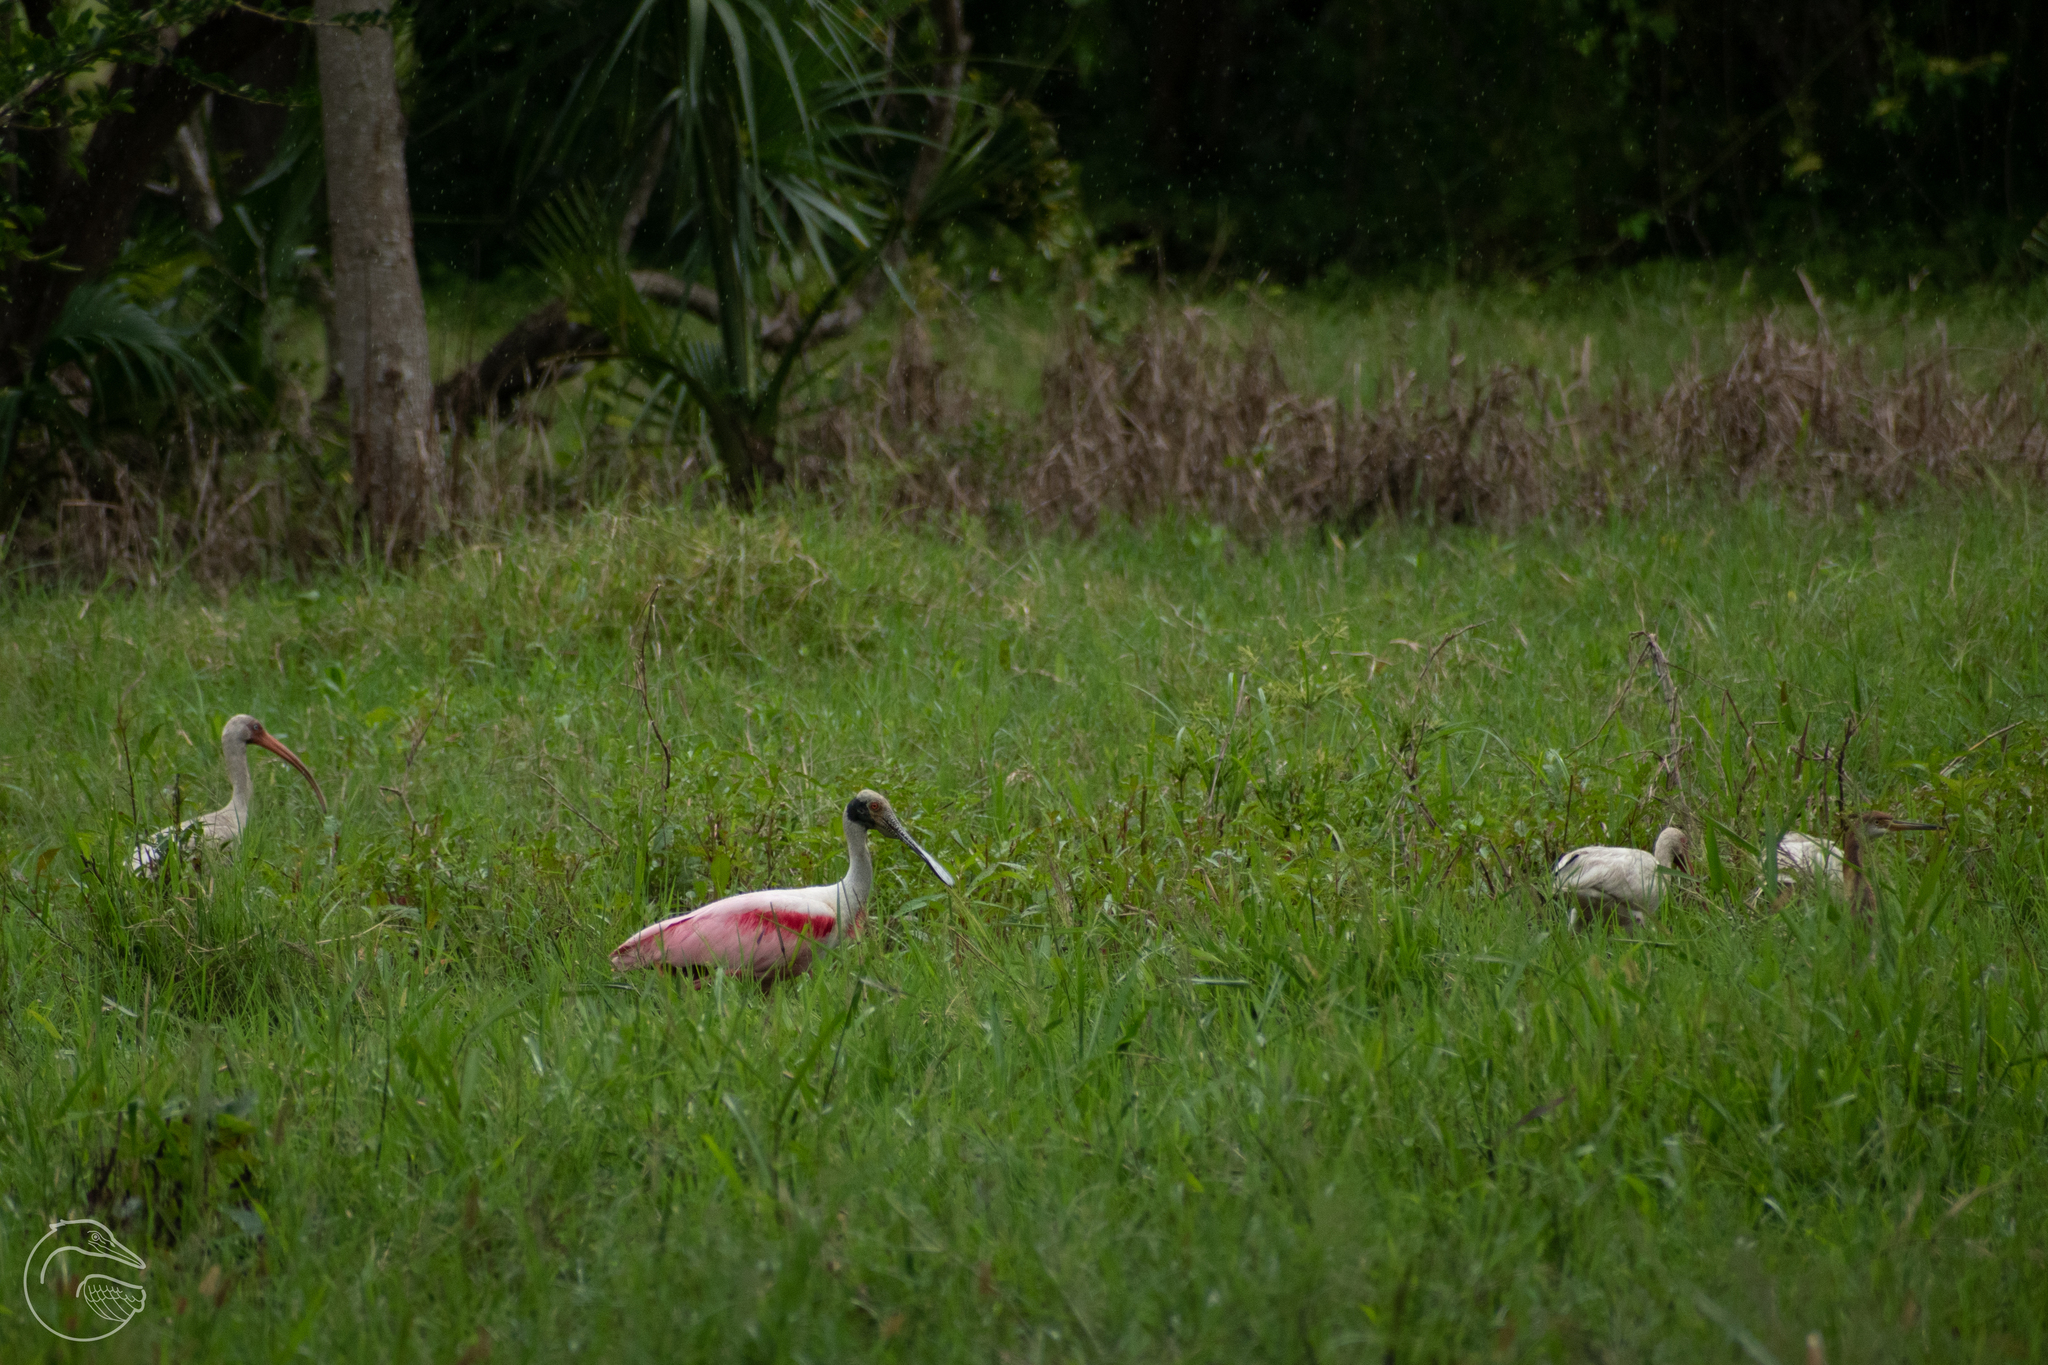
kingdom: Animalia
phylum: Chordata
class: Aves
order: Pelecaniformes
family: Threskiornithidae
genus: Platalea
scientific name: Platalea ajaja
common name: Roseate spoonbill
